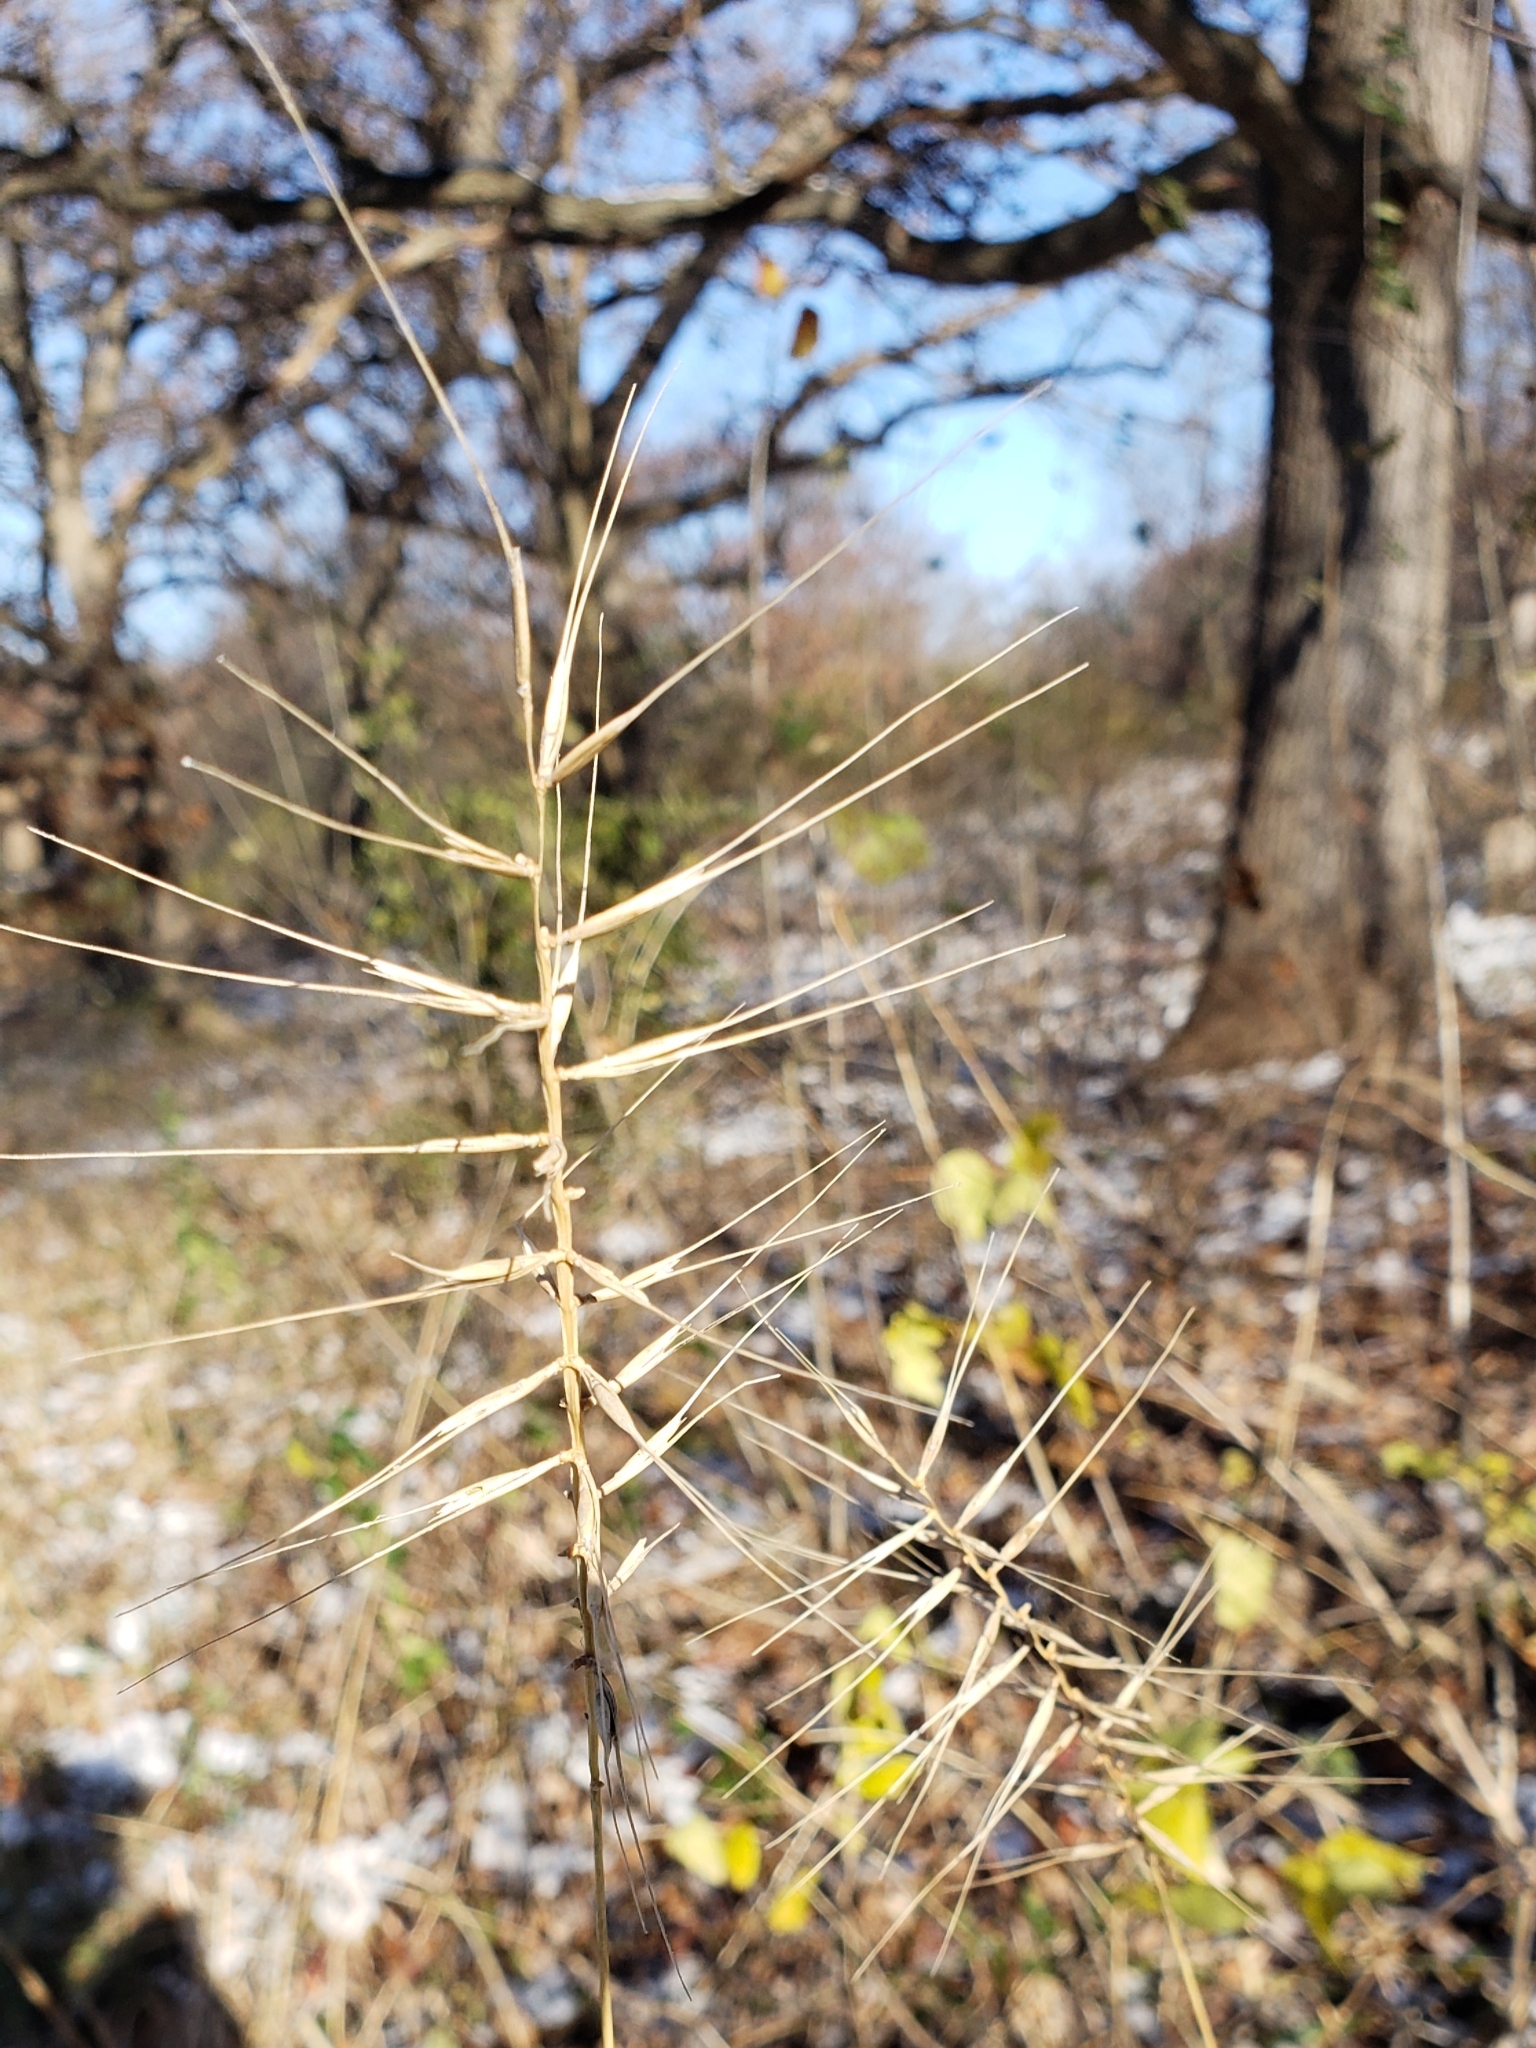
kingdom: Plantae
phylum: Tracheophyta
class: Liliopsida
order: Poales
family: Poaceae
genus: Elymus
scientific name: Elymus hystrix
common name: Bottlebrush grass
